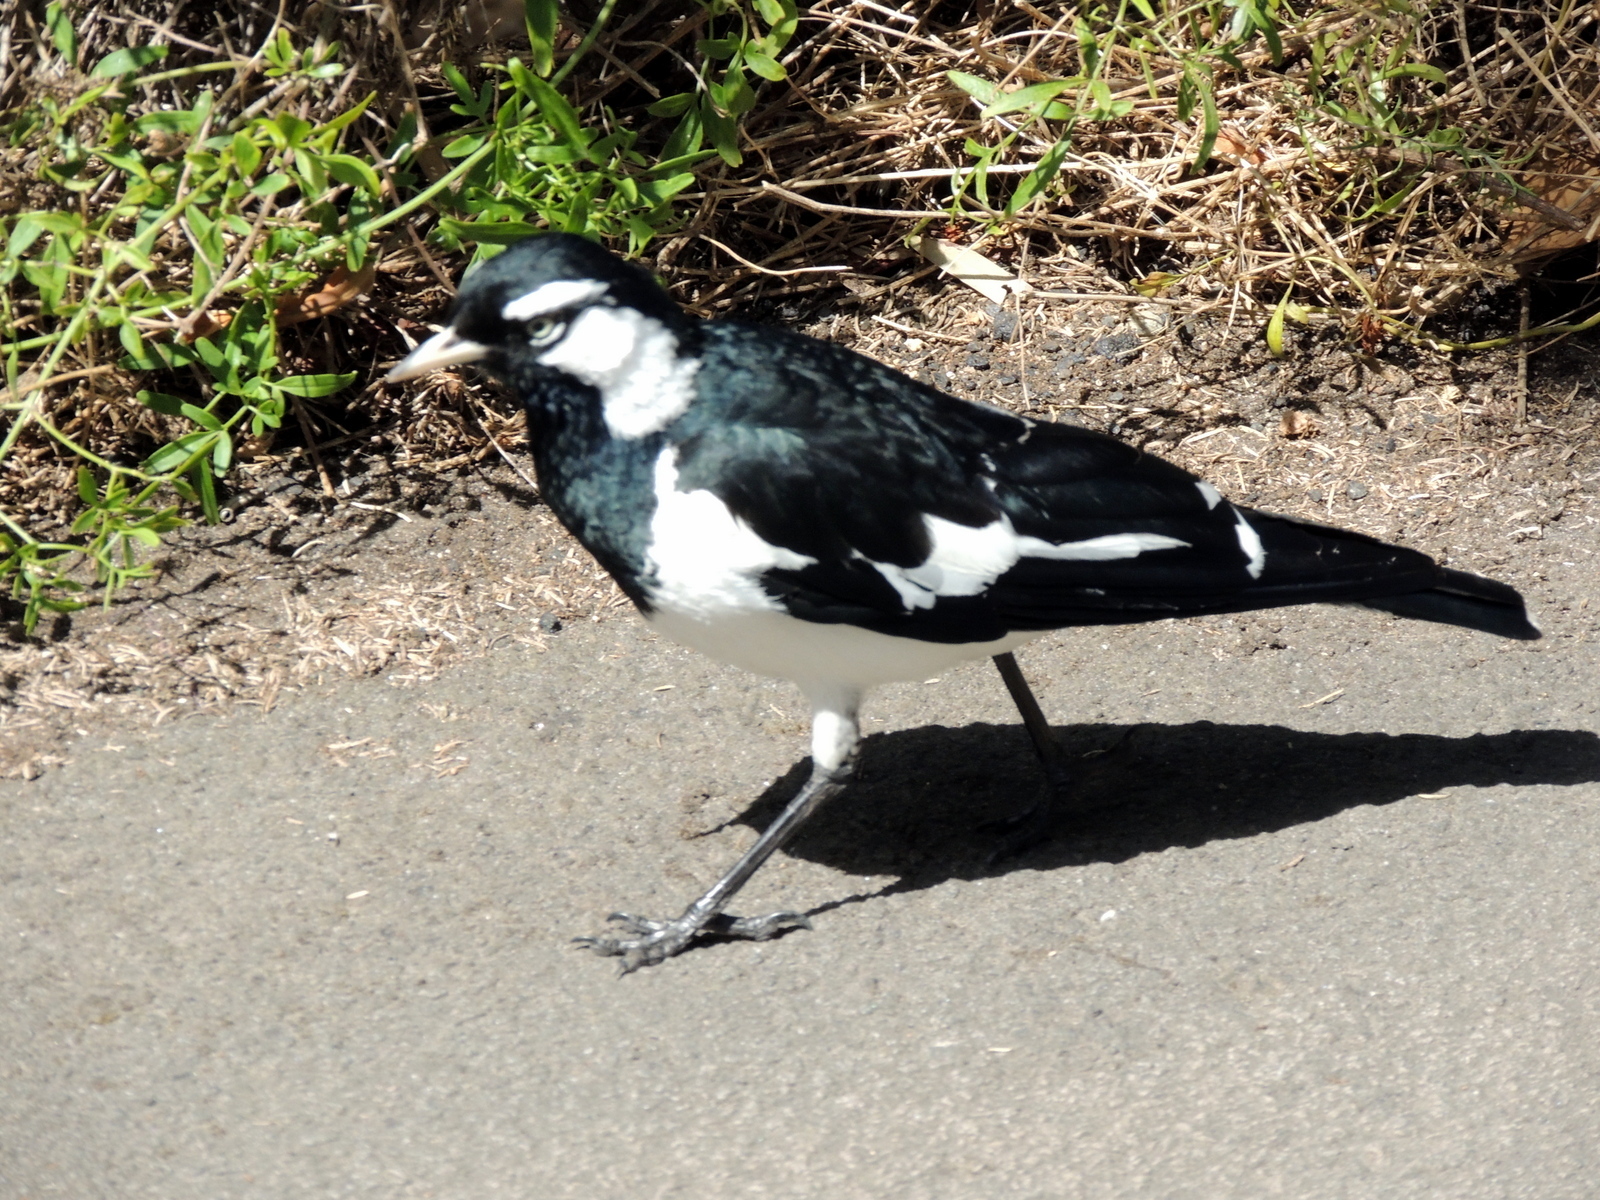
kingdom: Animalia
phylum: Chordata
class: Aves
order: Passeriformes
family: Monarchidae
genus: Grallina
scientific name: Grallina cyanoleuca
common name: Magpie-lark
